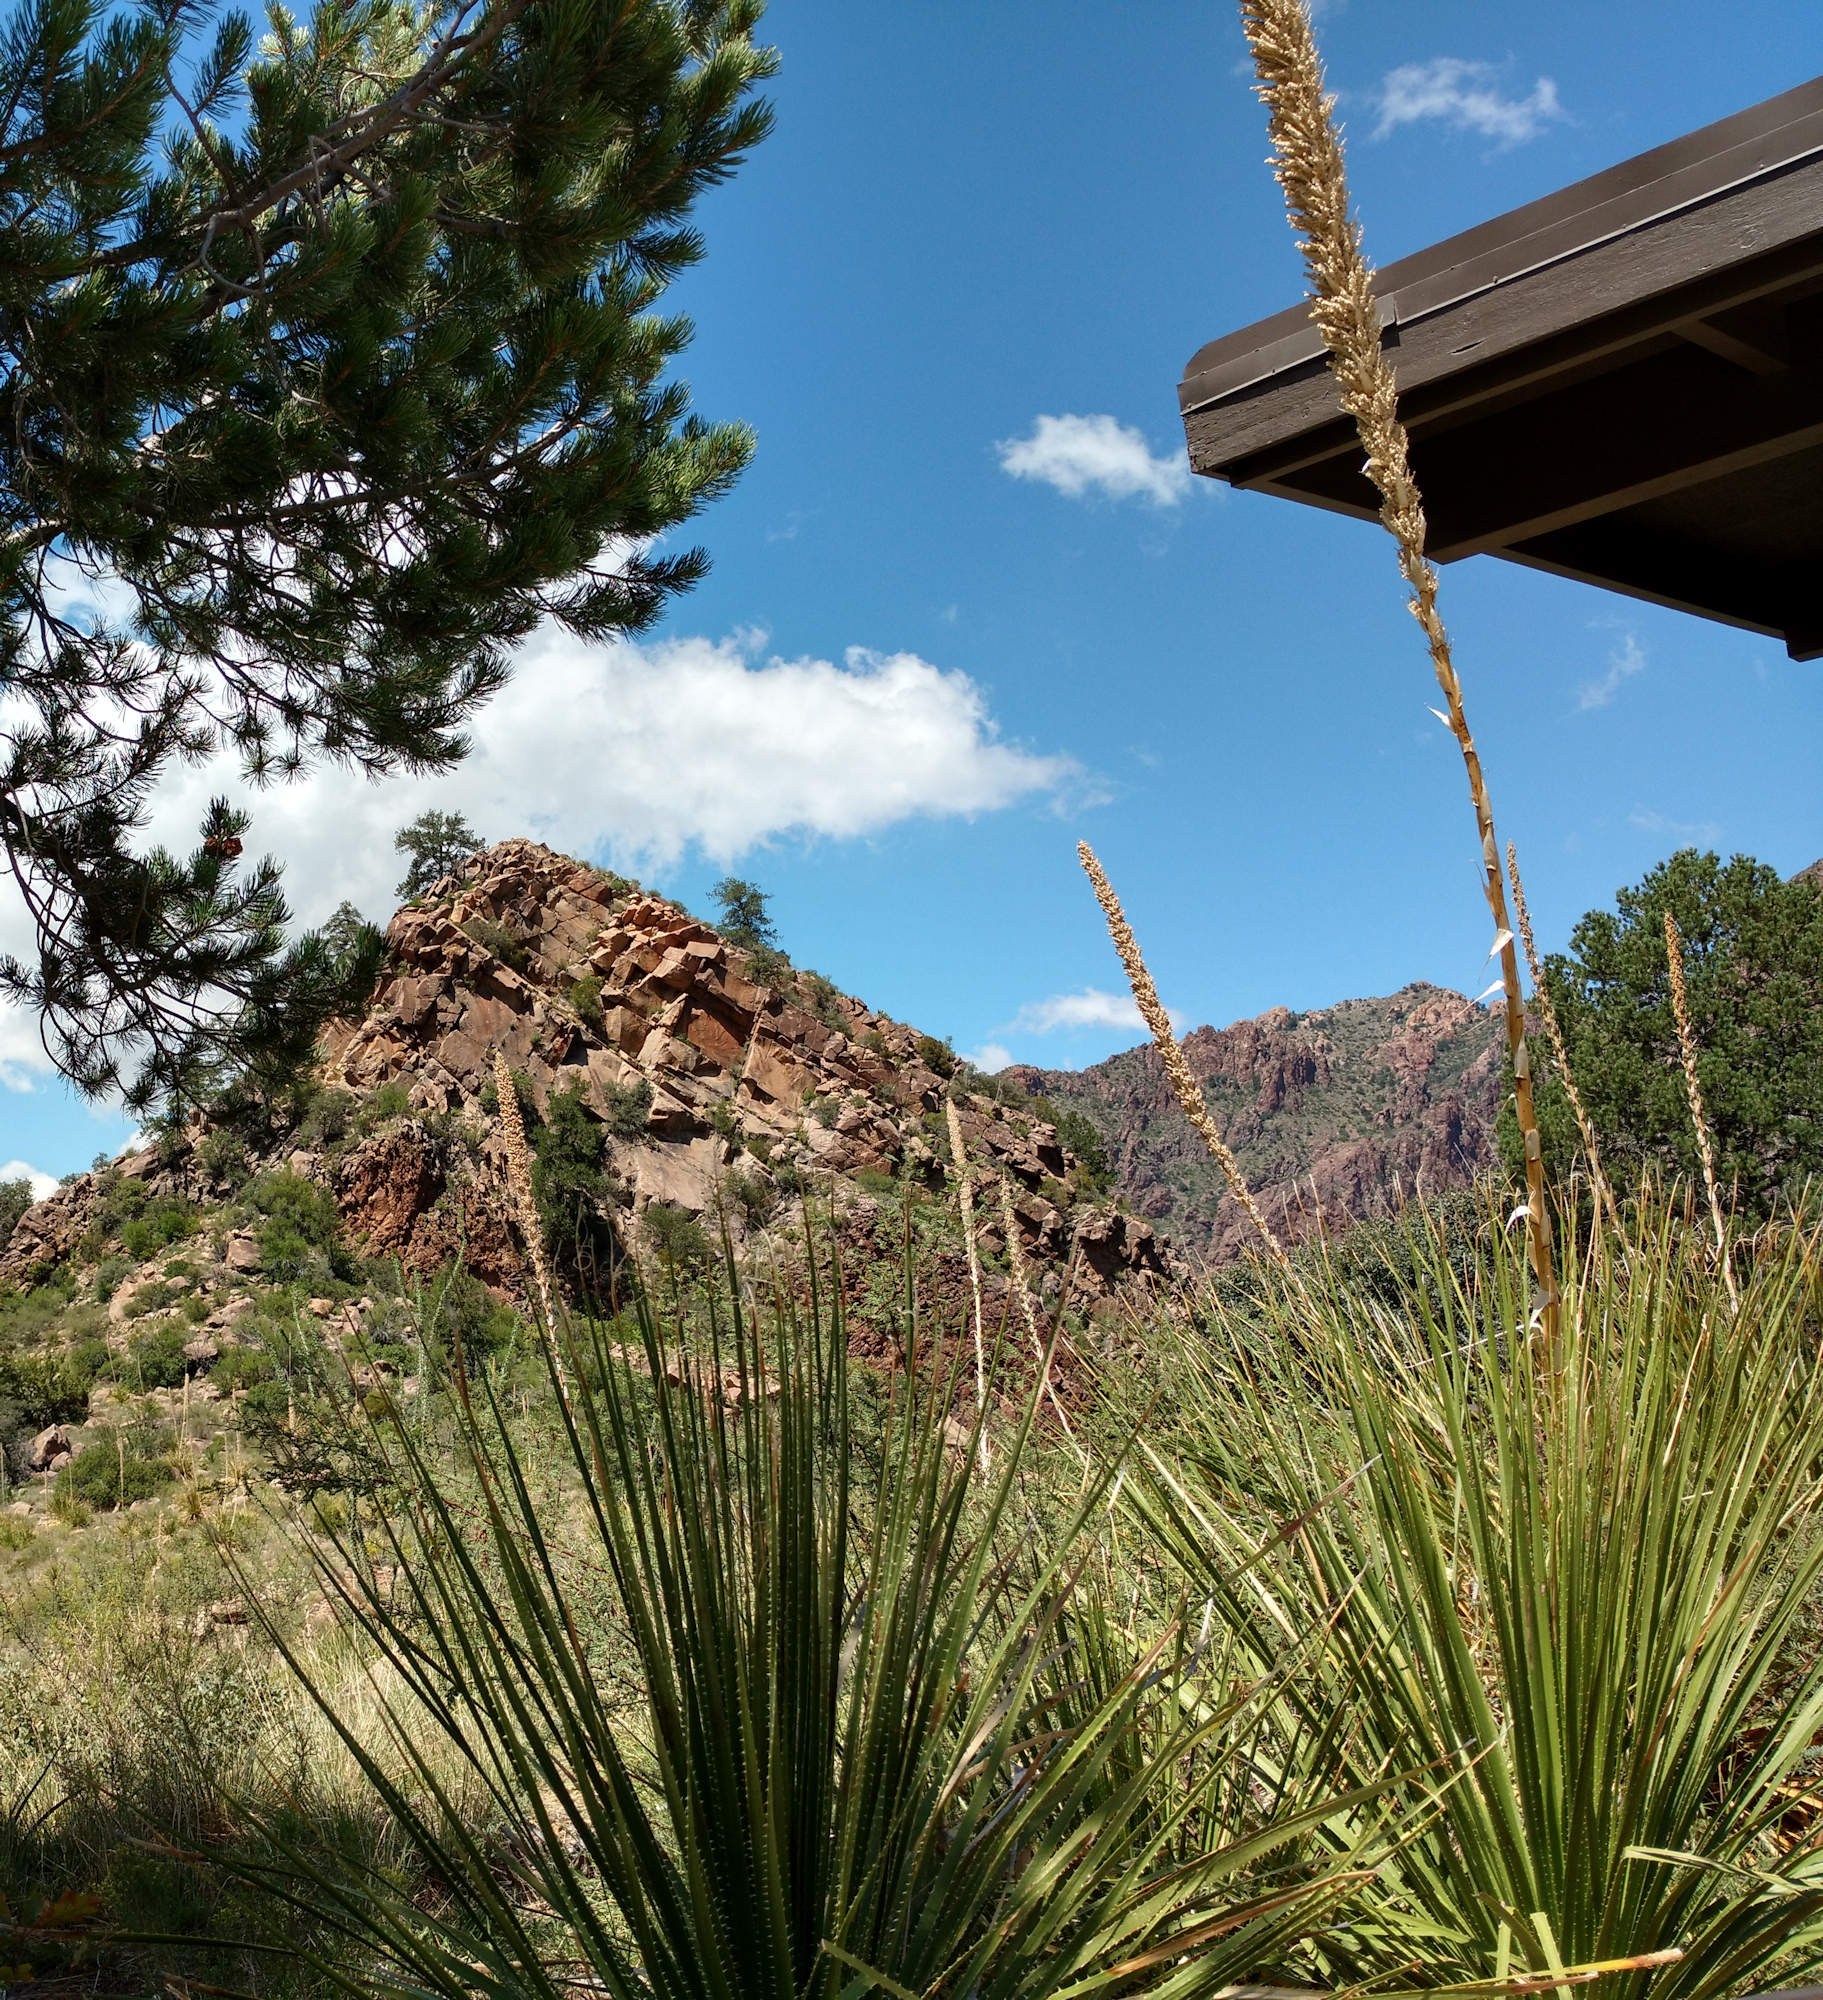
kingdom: Plantae
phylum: Tracheophyta
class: Liliopsida
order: Asparagales
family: Asparagaceae
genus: Dasylirion
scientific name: Dasylirion leiophyllum
